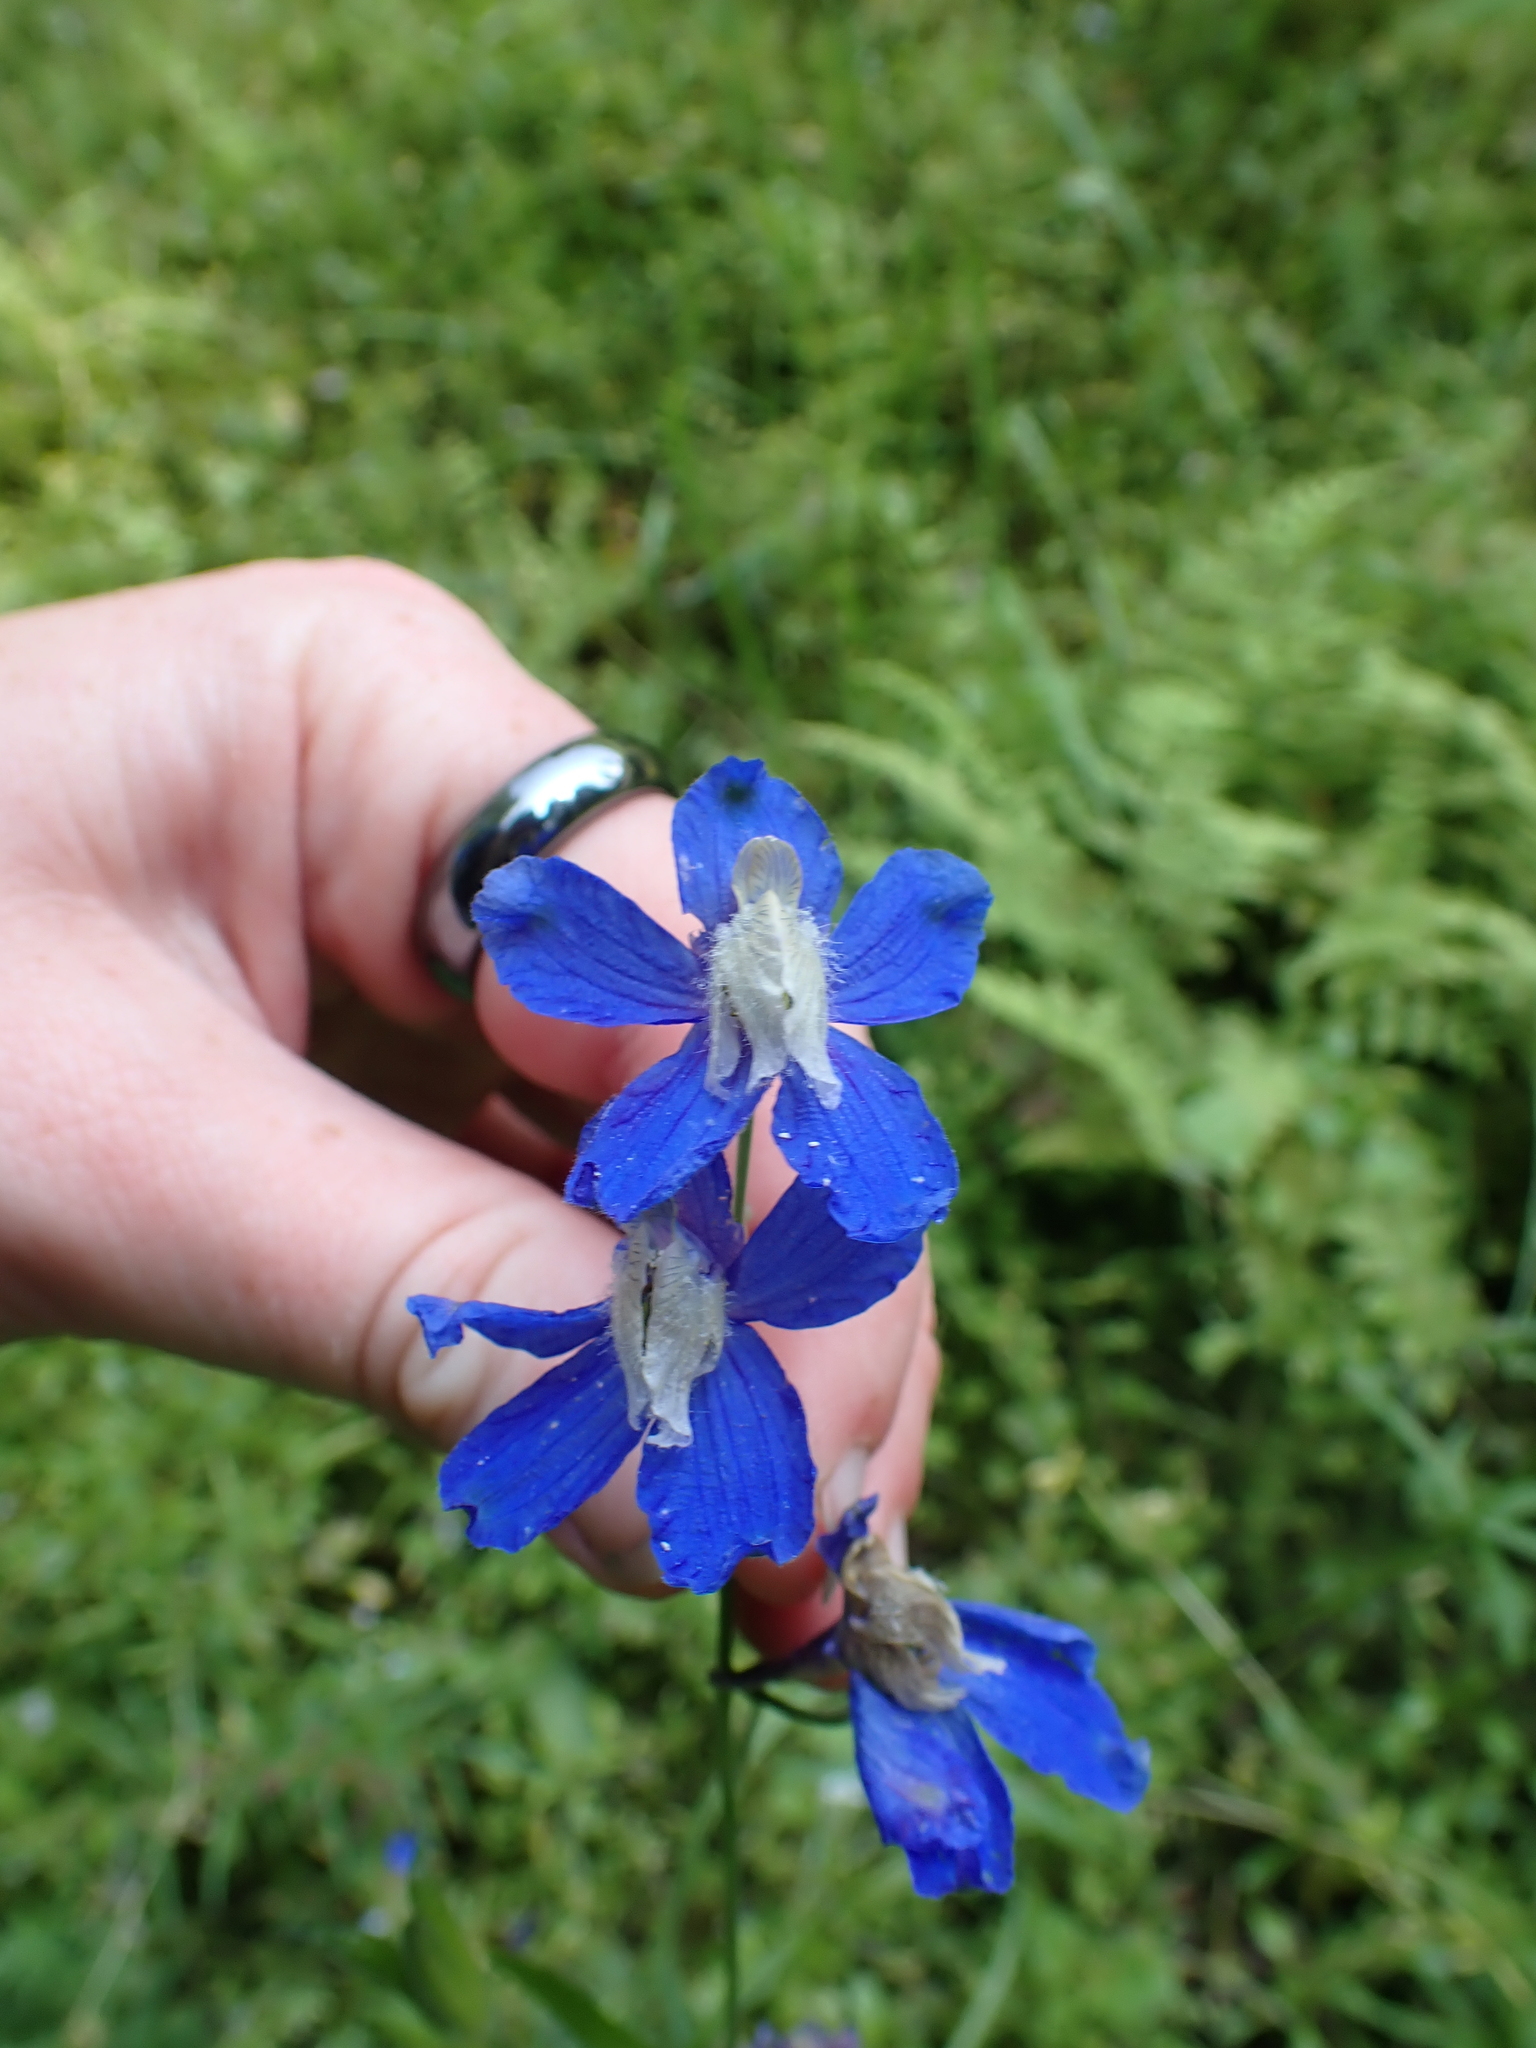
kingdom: Plantae
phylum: Tracheophyta
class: Magnoliopsida
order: Ranunculales
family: Ranunculaceae
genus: Delphinium
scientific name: Delphinium sutherlandii
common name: Sutherland's larkspur
